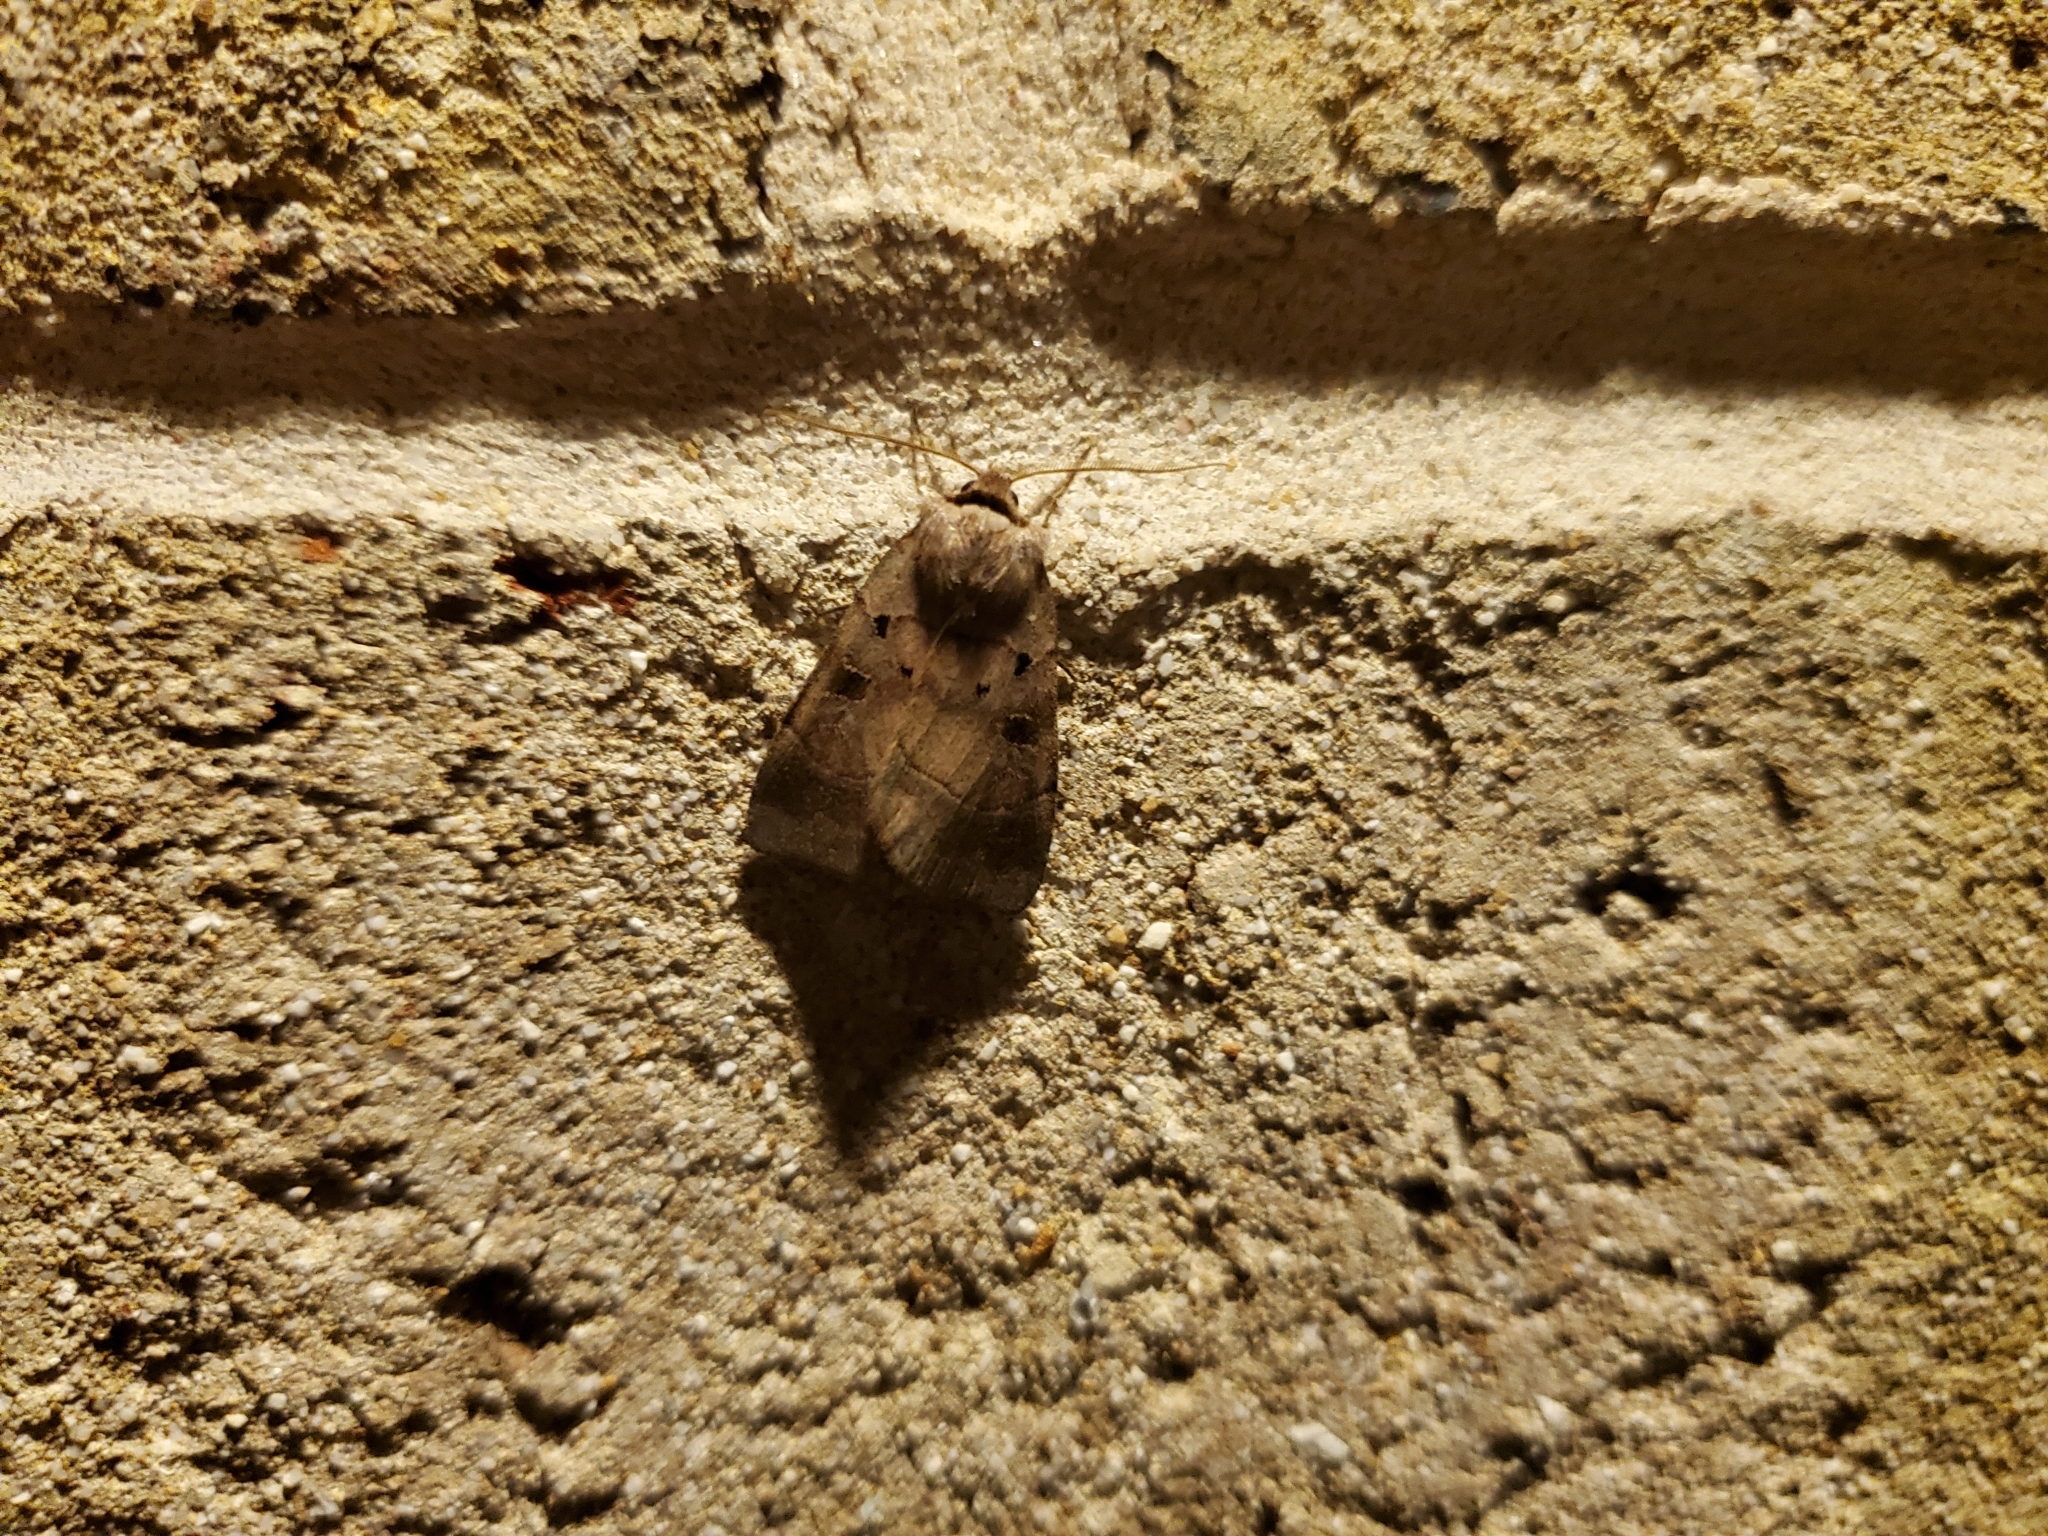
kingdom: Animalia
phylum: Arthropoda
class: Insecta
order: Lepidoptera
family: Noctuidae
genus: Agnorisma
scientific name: Agnorisma badinodis
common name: Pale-banded dart
